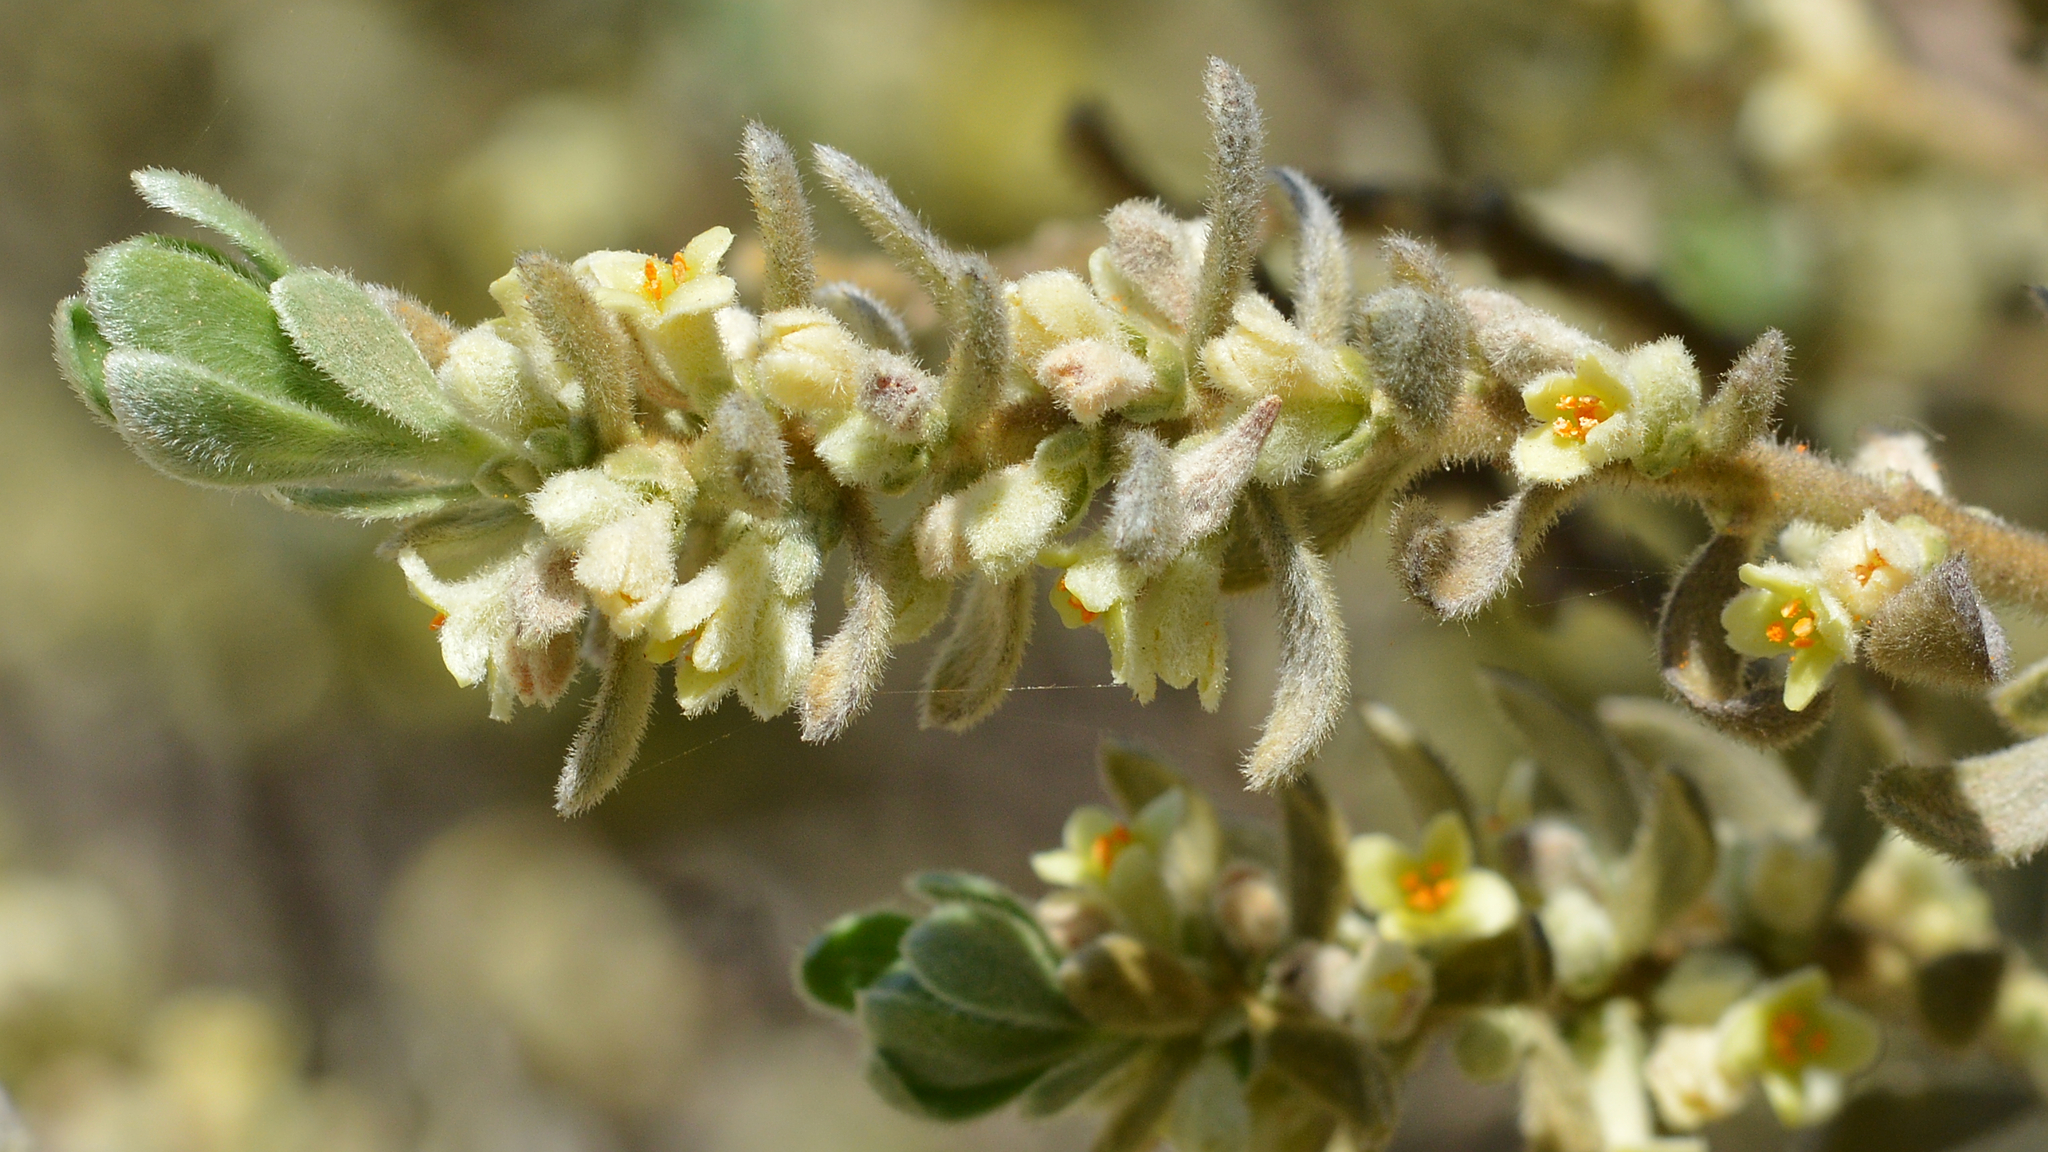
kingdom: Plantae
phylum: Tracheophyta
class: Magnoliopsida
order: Malvales
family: Thymelaeaceae
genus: Thymelaea
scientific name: Thymelaea velutina
